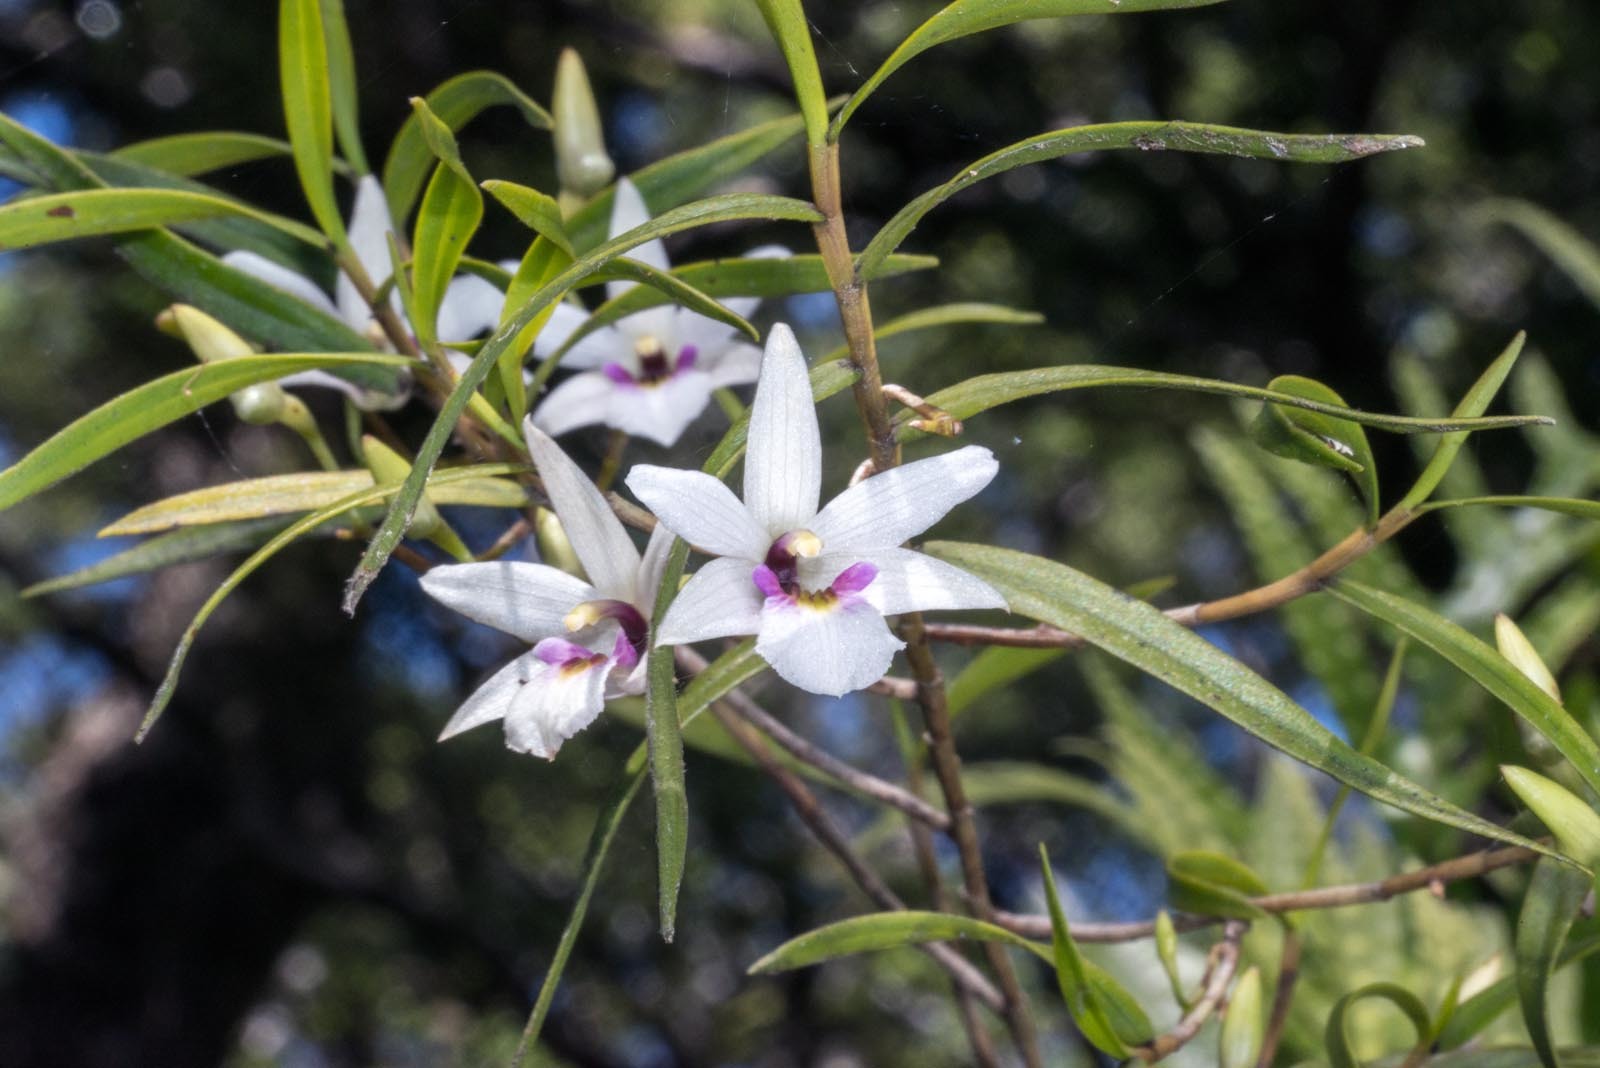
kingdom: Plantae
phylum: Tracheophyta
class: Liliopsida
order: Asparagales
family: Orchidaceae
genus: Dendrobium
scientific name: Dendrobium cunninghamii
